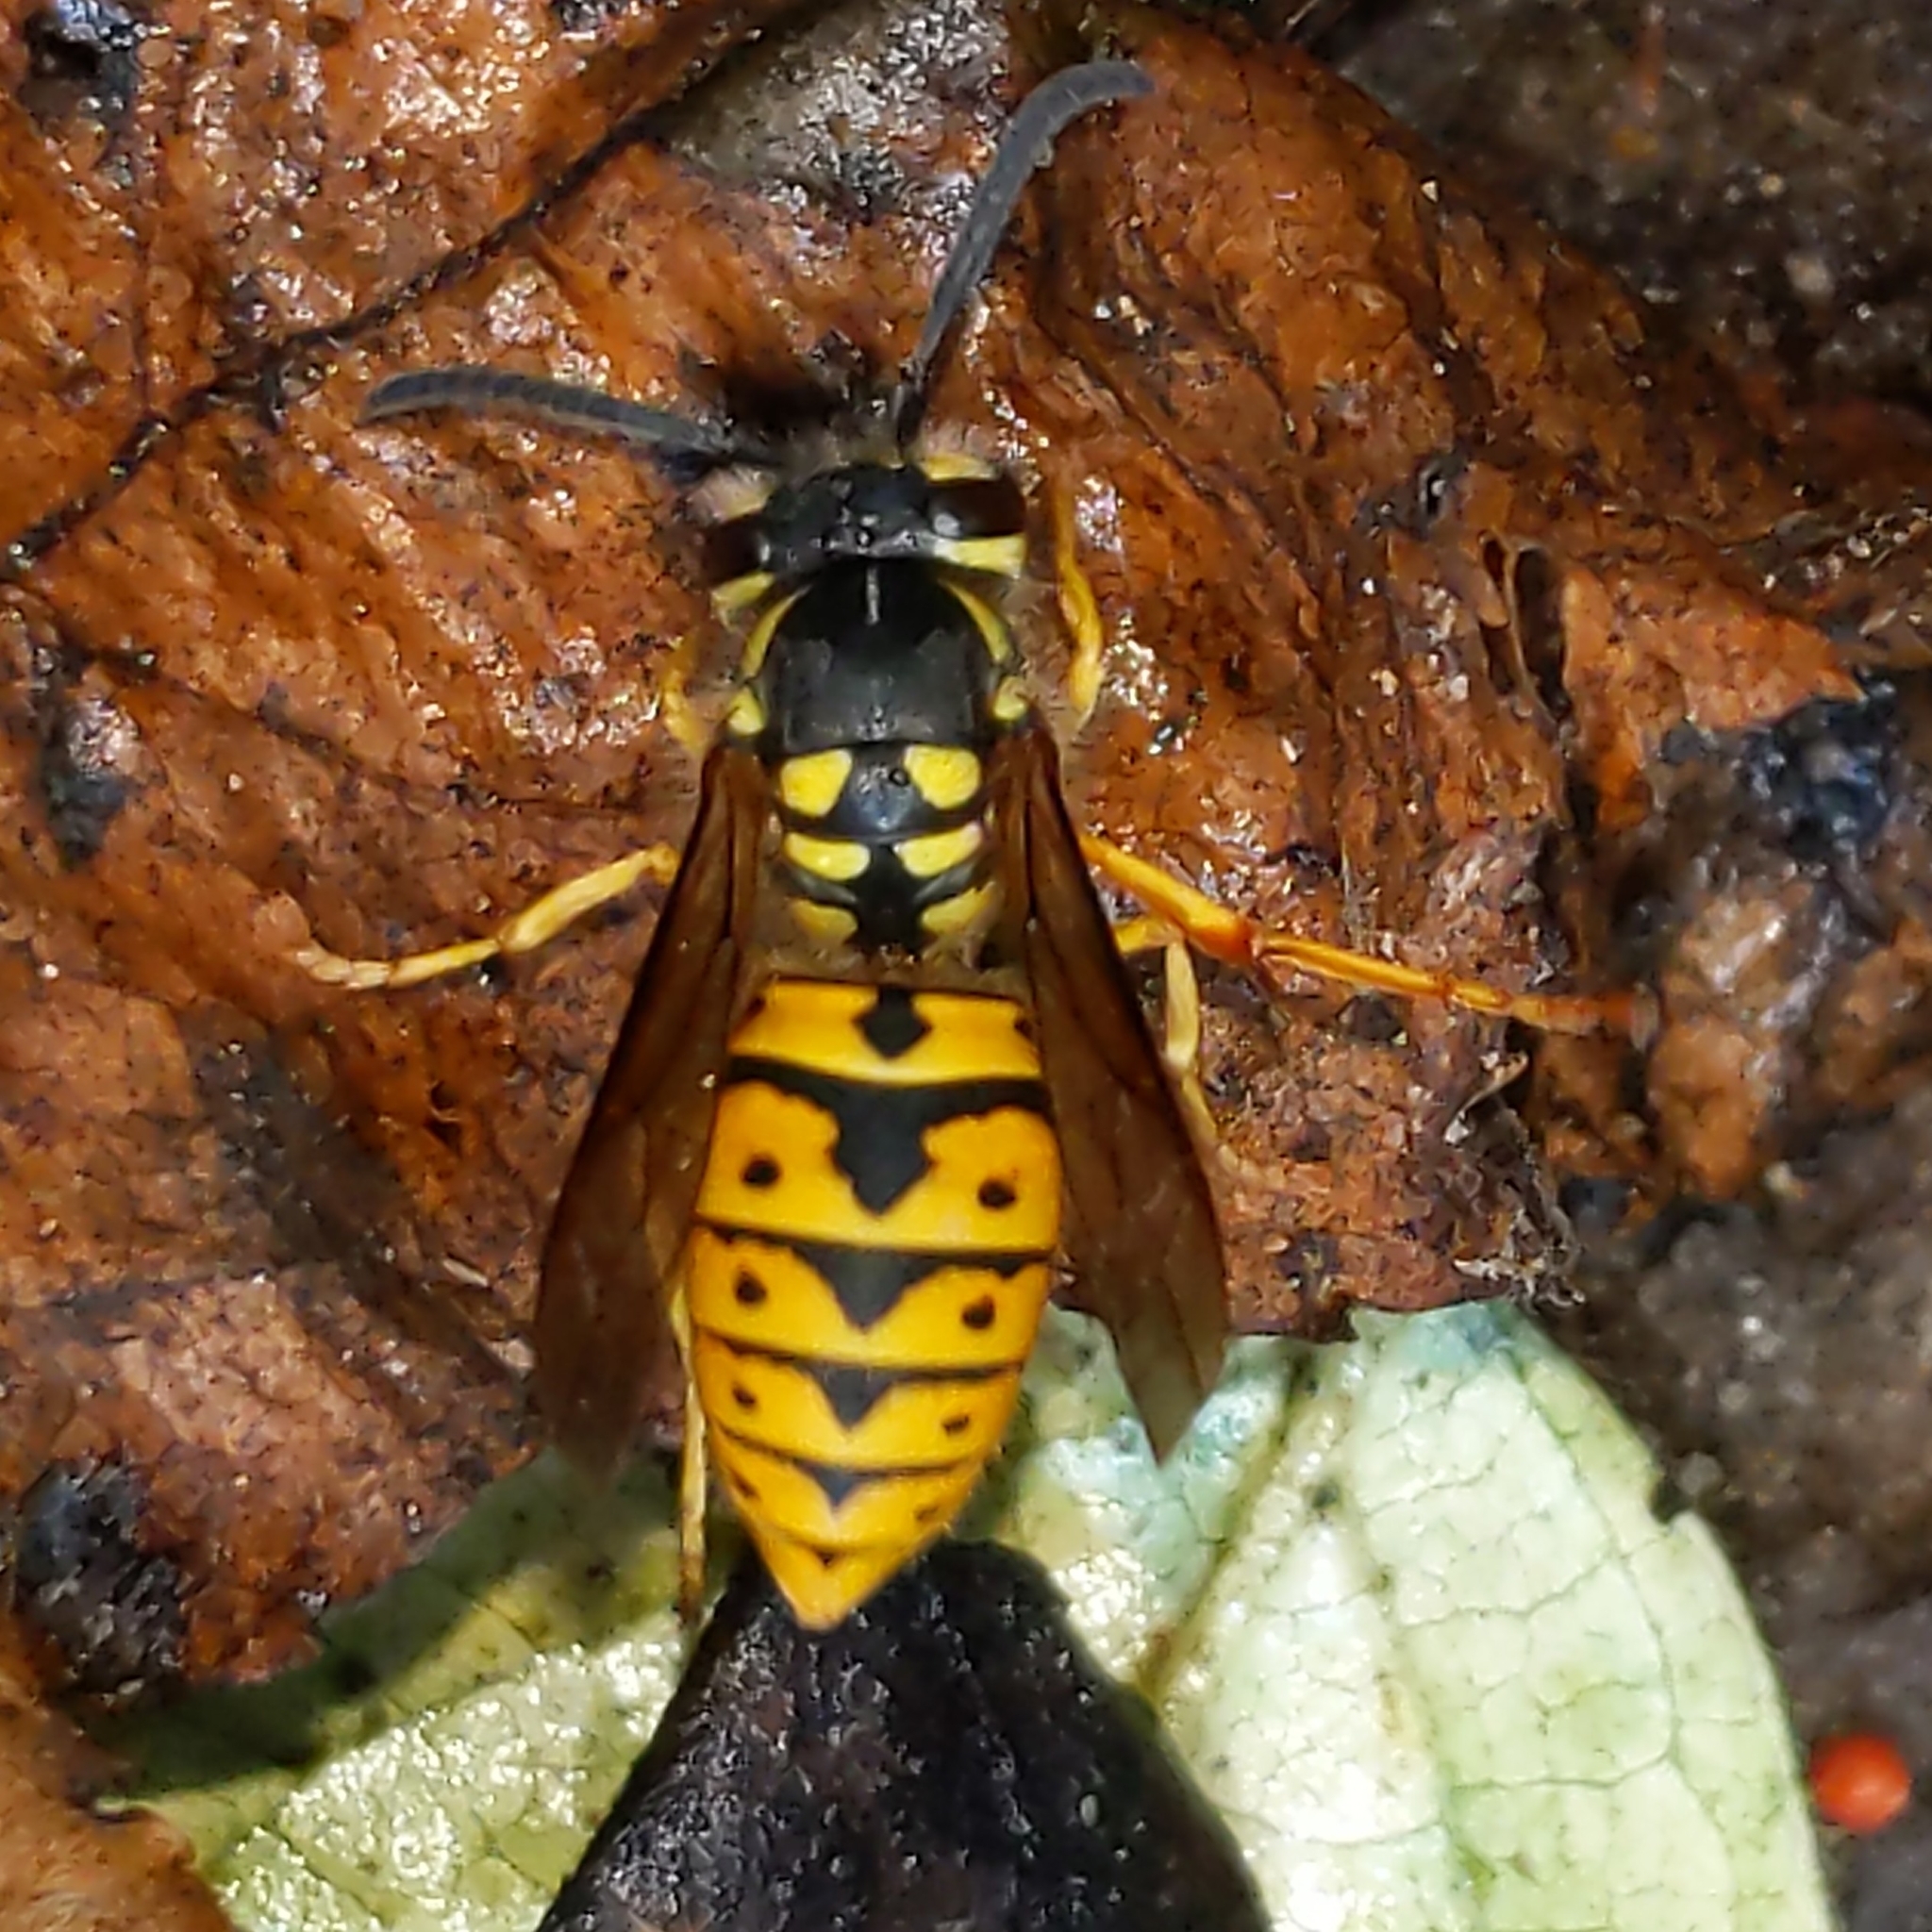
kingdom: Animalia
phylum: Arthropoda
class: Insecta
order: Hymenoptera
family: Vespidae
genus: Vespula
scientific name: Vespula germanica
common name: German wasp
